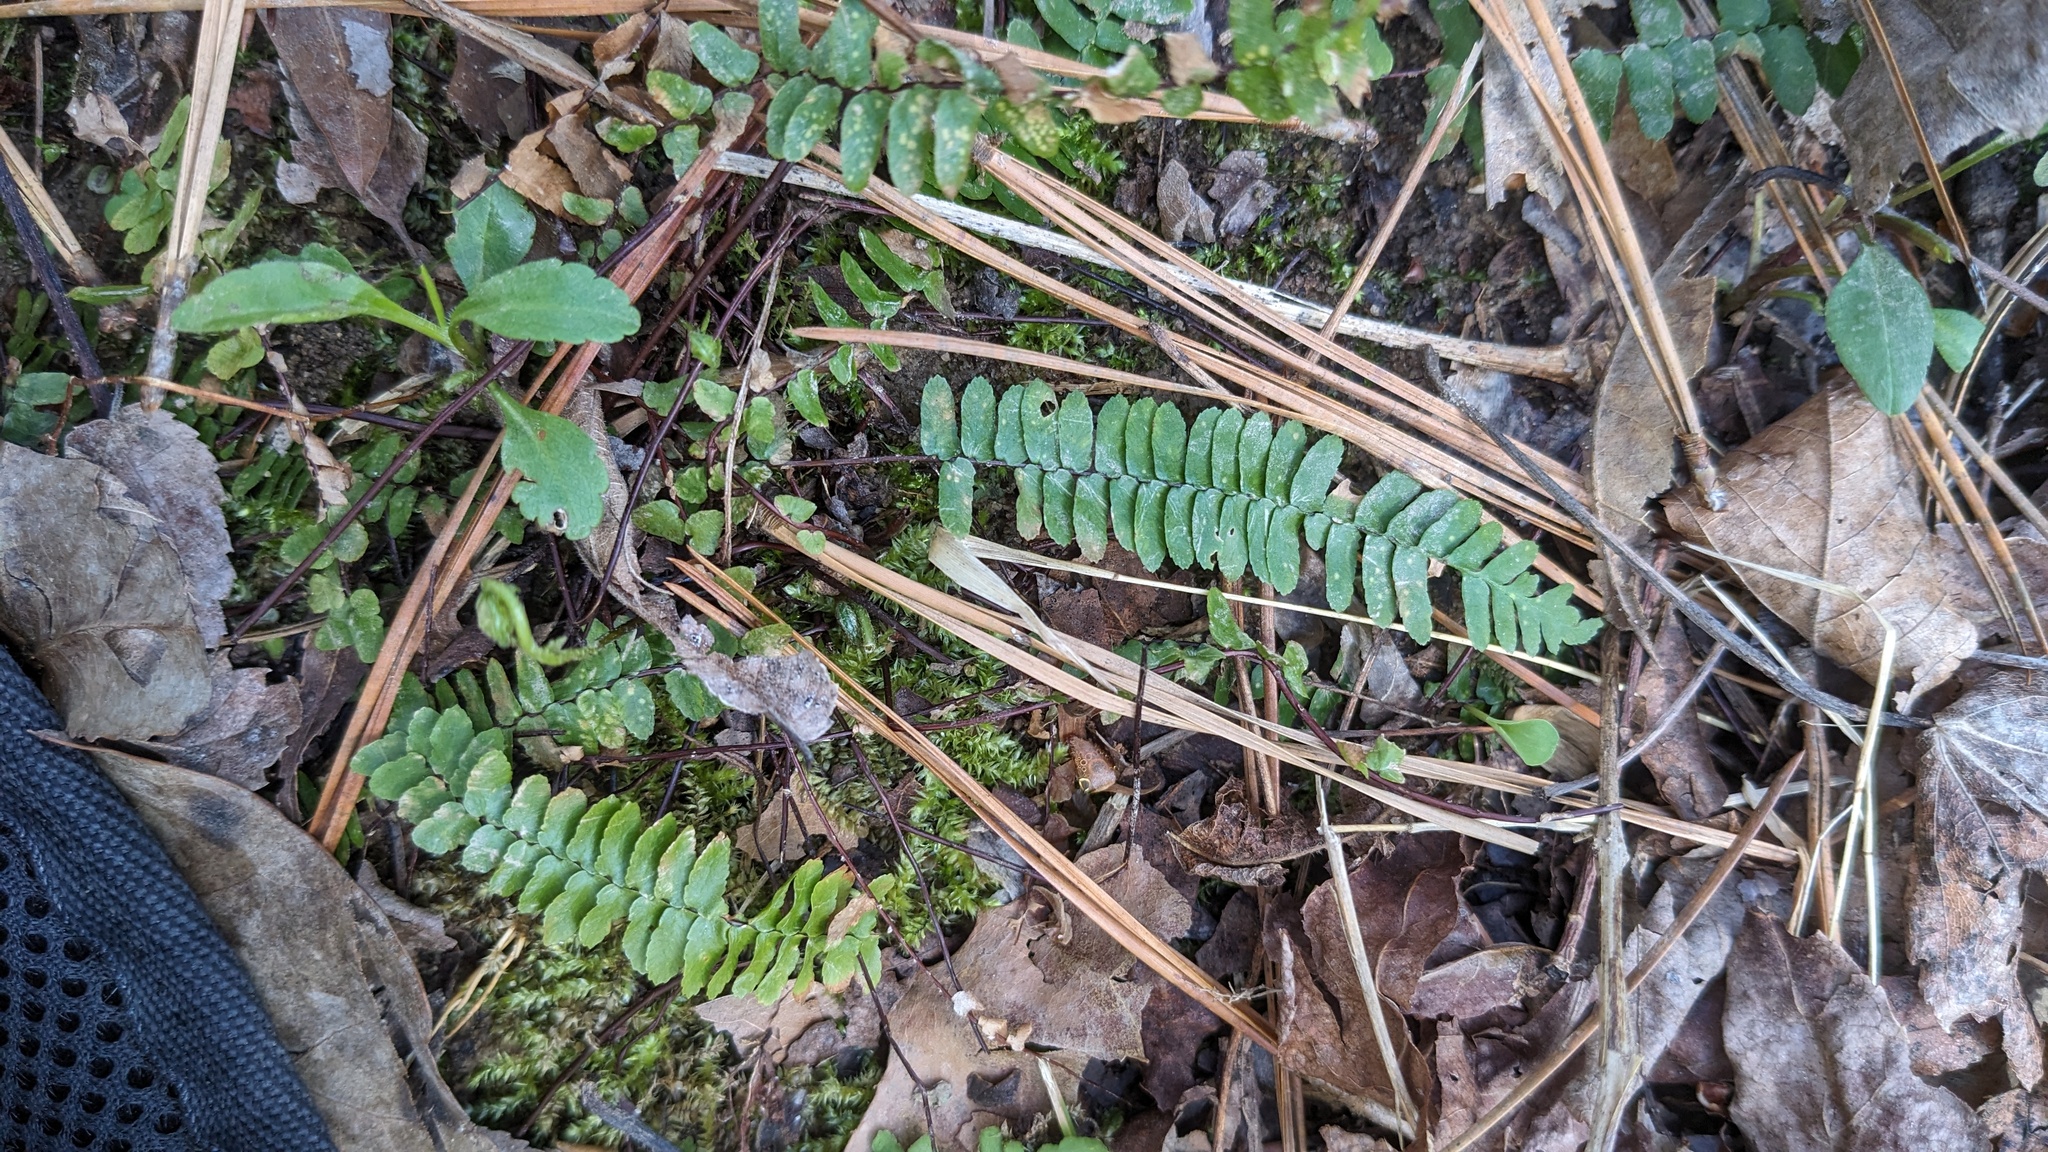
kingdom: Plantae
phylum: Tracheophyta
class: Polypodiopsida
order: Polypodiales
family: Aspleniaceae
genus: Asplenium
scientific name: Asplenium platyneuron
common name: Ebony spleenwort
